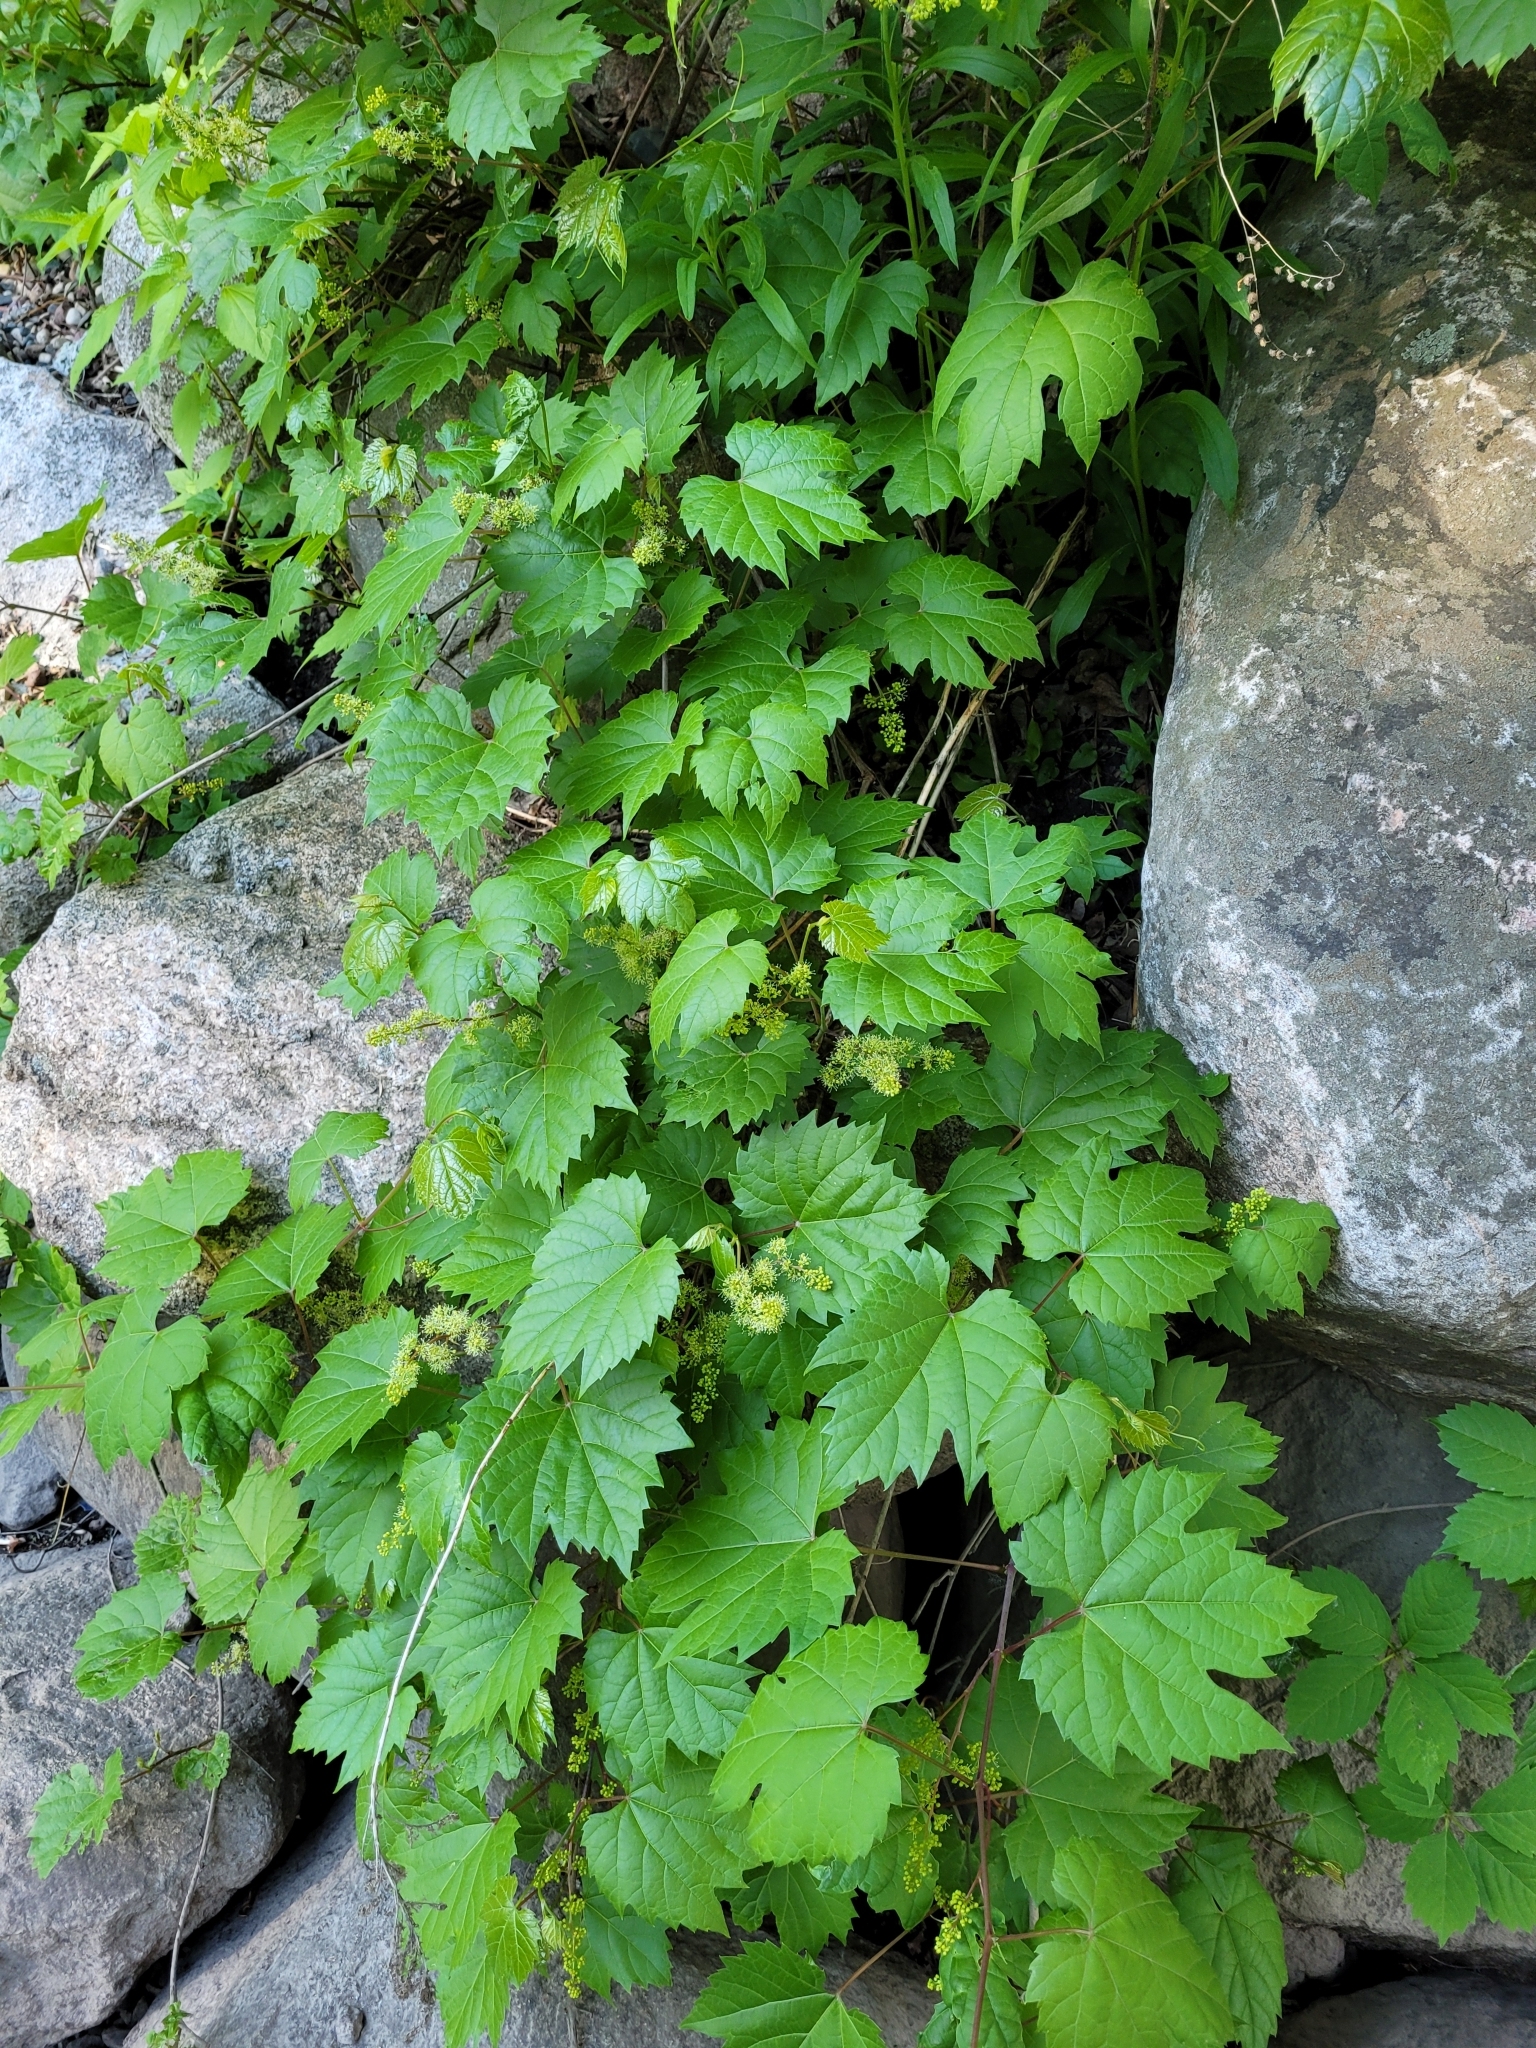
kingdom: Plantae
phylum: Tracheophyta
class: Magnoliopsida
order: Vitales
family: Vitaceae
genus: Vitis
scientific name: Vitis riparia
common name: Frost grape
